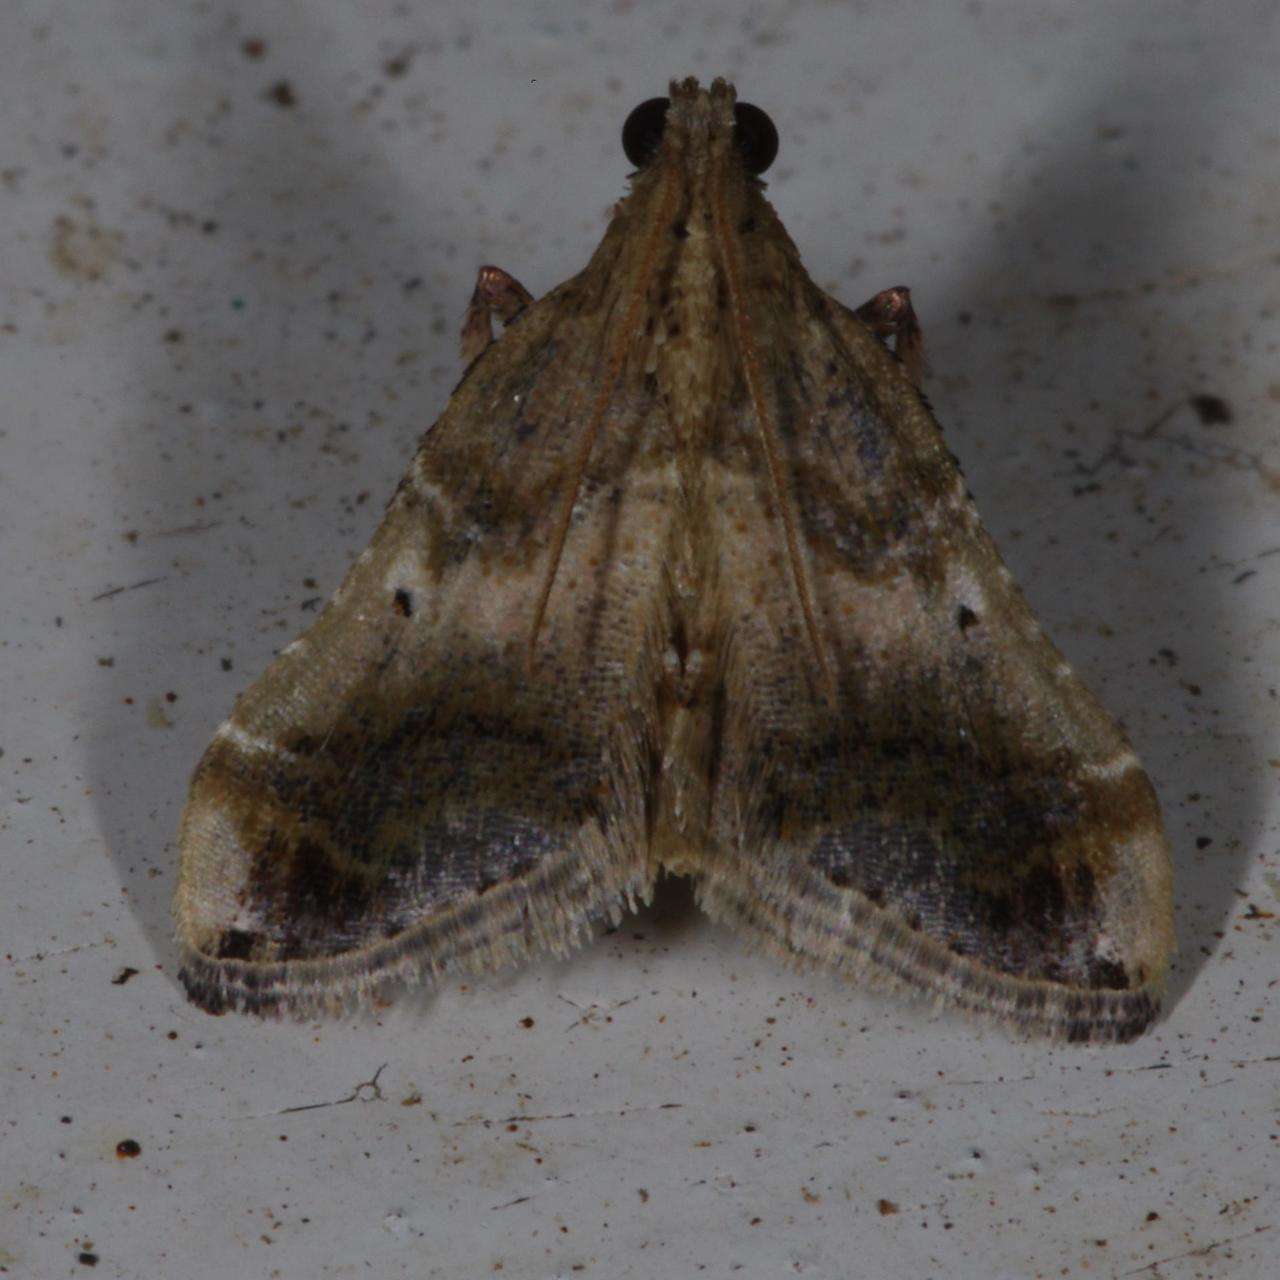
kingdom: Animalia
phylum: Arthropoda
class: Insecta
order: Lepidoptera
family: Pyralidae
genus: Scenedra
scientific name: Scenedra decoratalis
